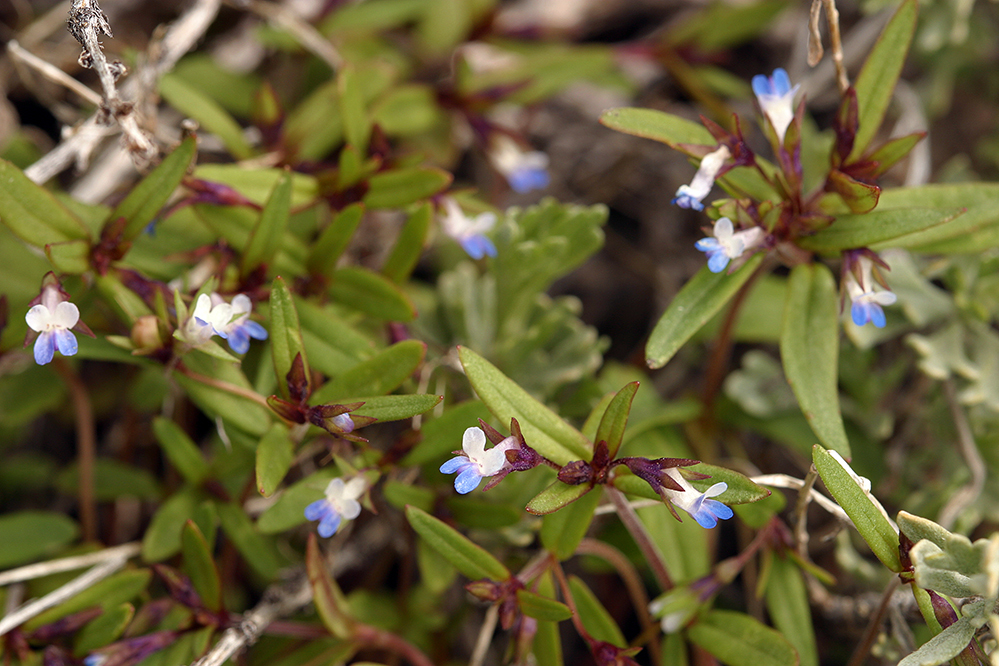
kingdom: Plantae
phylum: Tracheophyta
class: Magnoliopsida
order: Lamiales
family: Plantaginaceae
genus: Collinsia
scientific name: Collinsia parviflora
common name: Blue-lips
